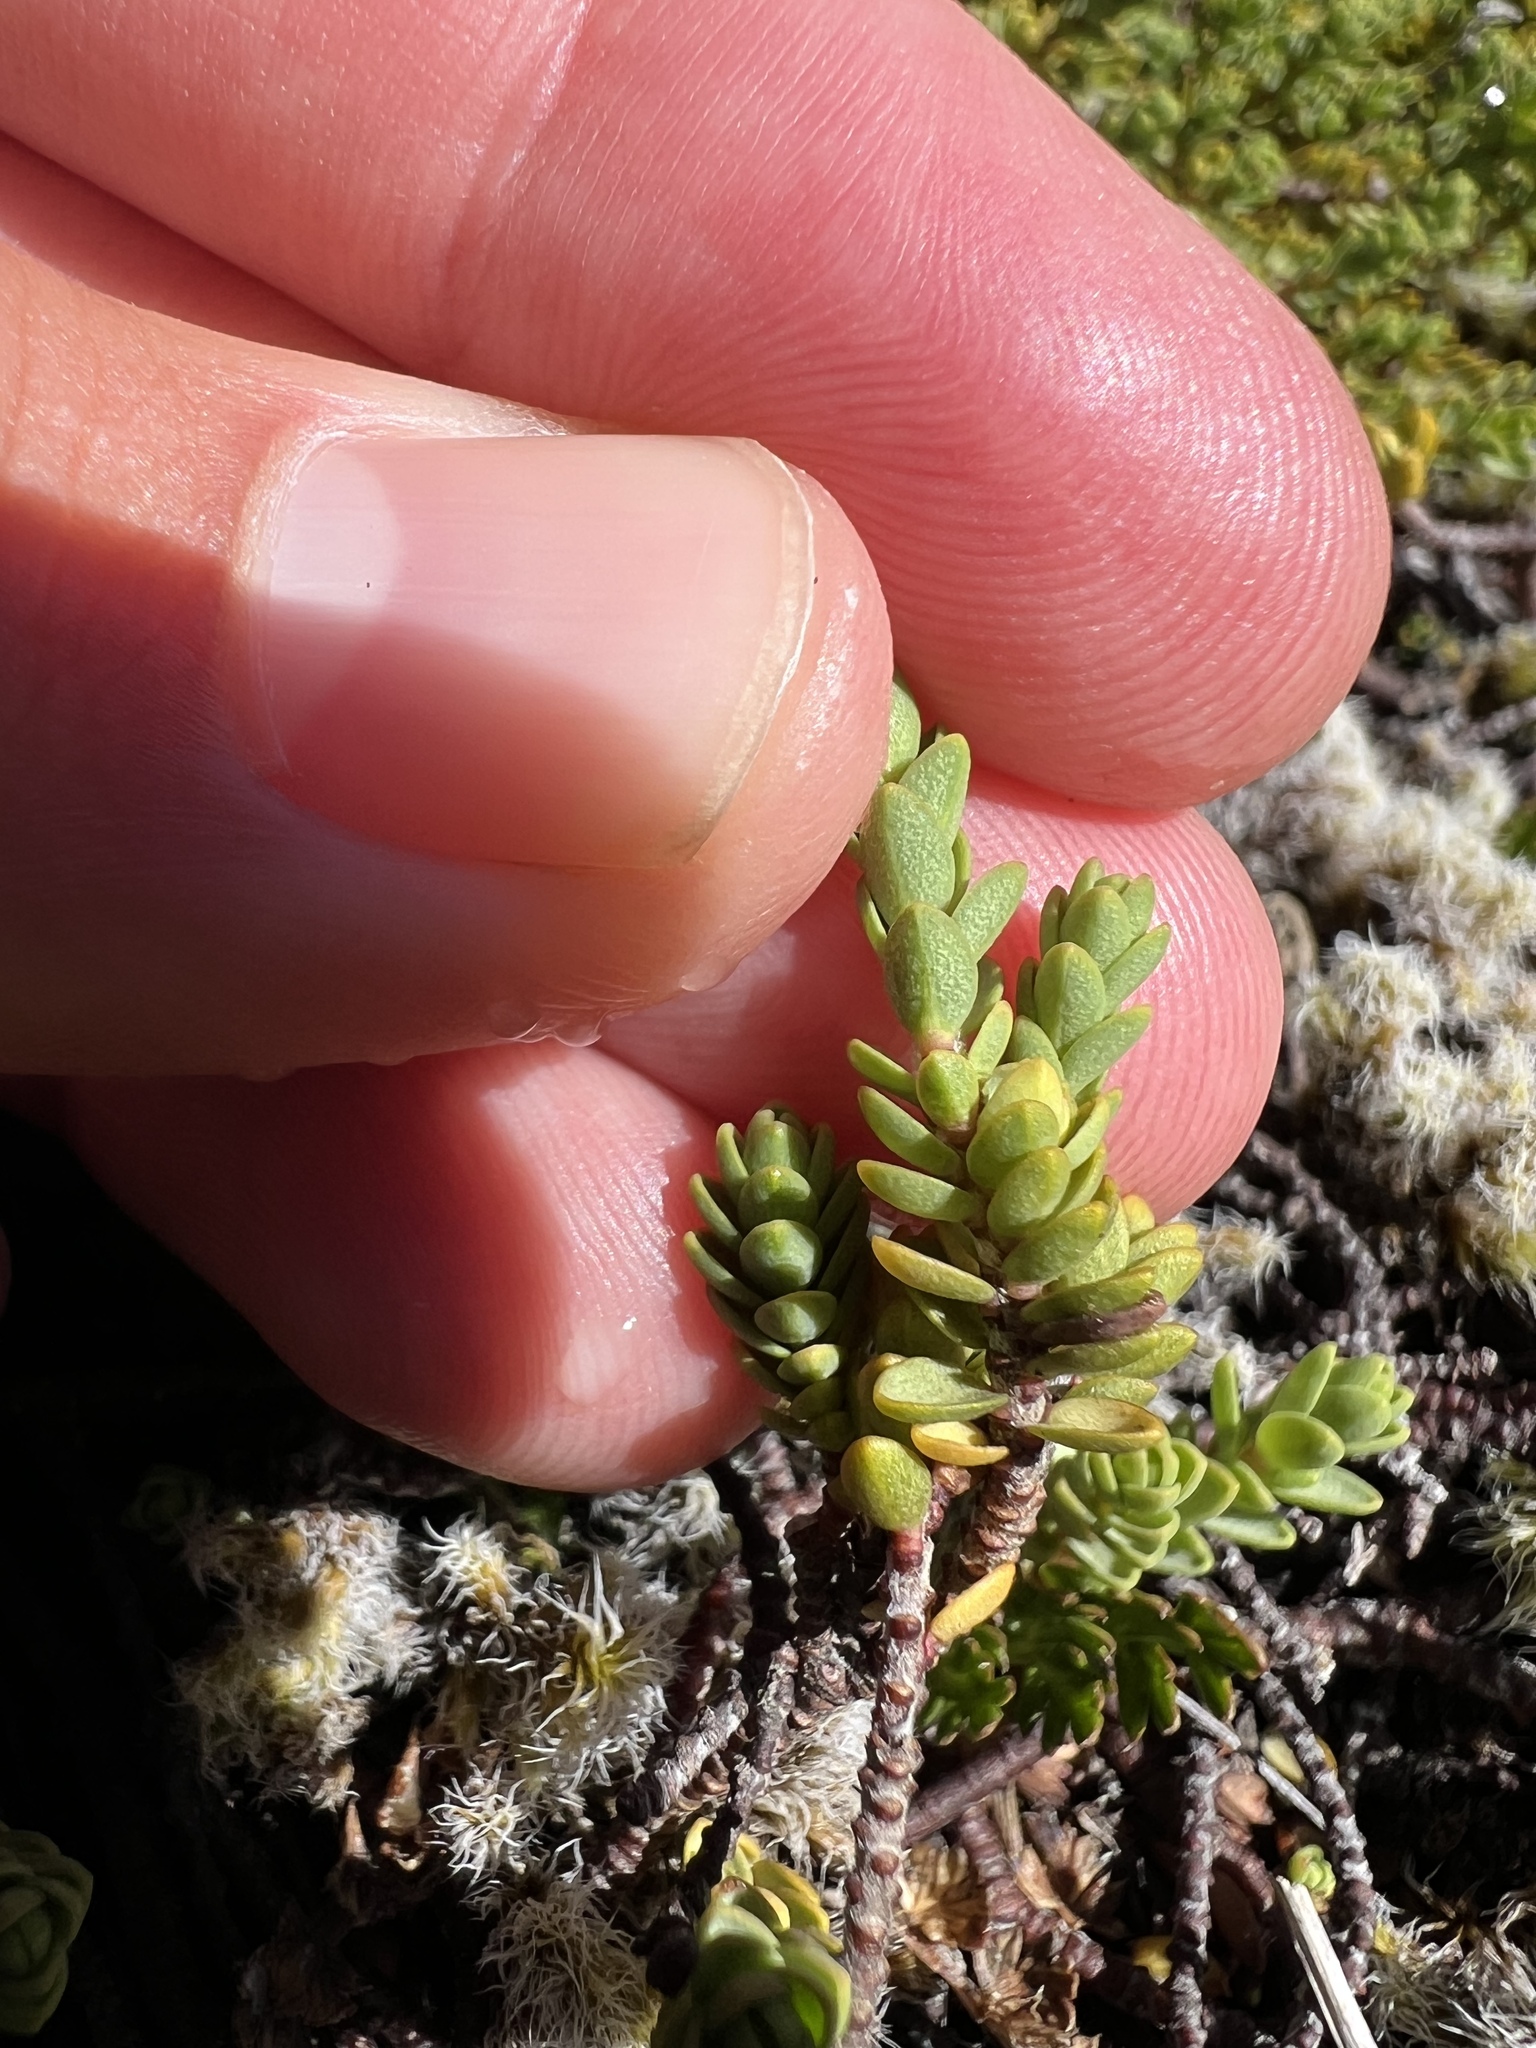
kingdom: Plantae
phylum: Tracheophyta
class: Magnoliopsida
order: Malvales
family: Thymelaeaceae
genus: Pimelea
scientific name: Pimelea microphylla
